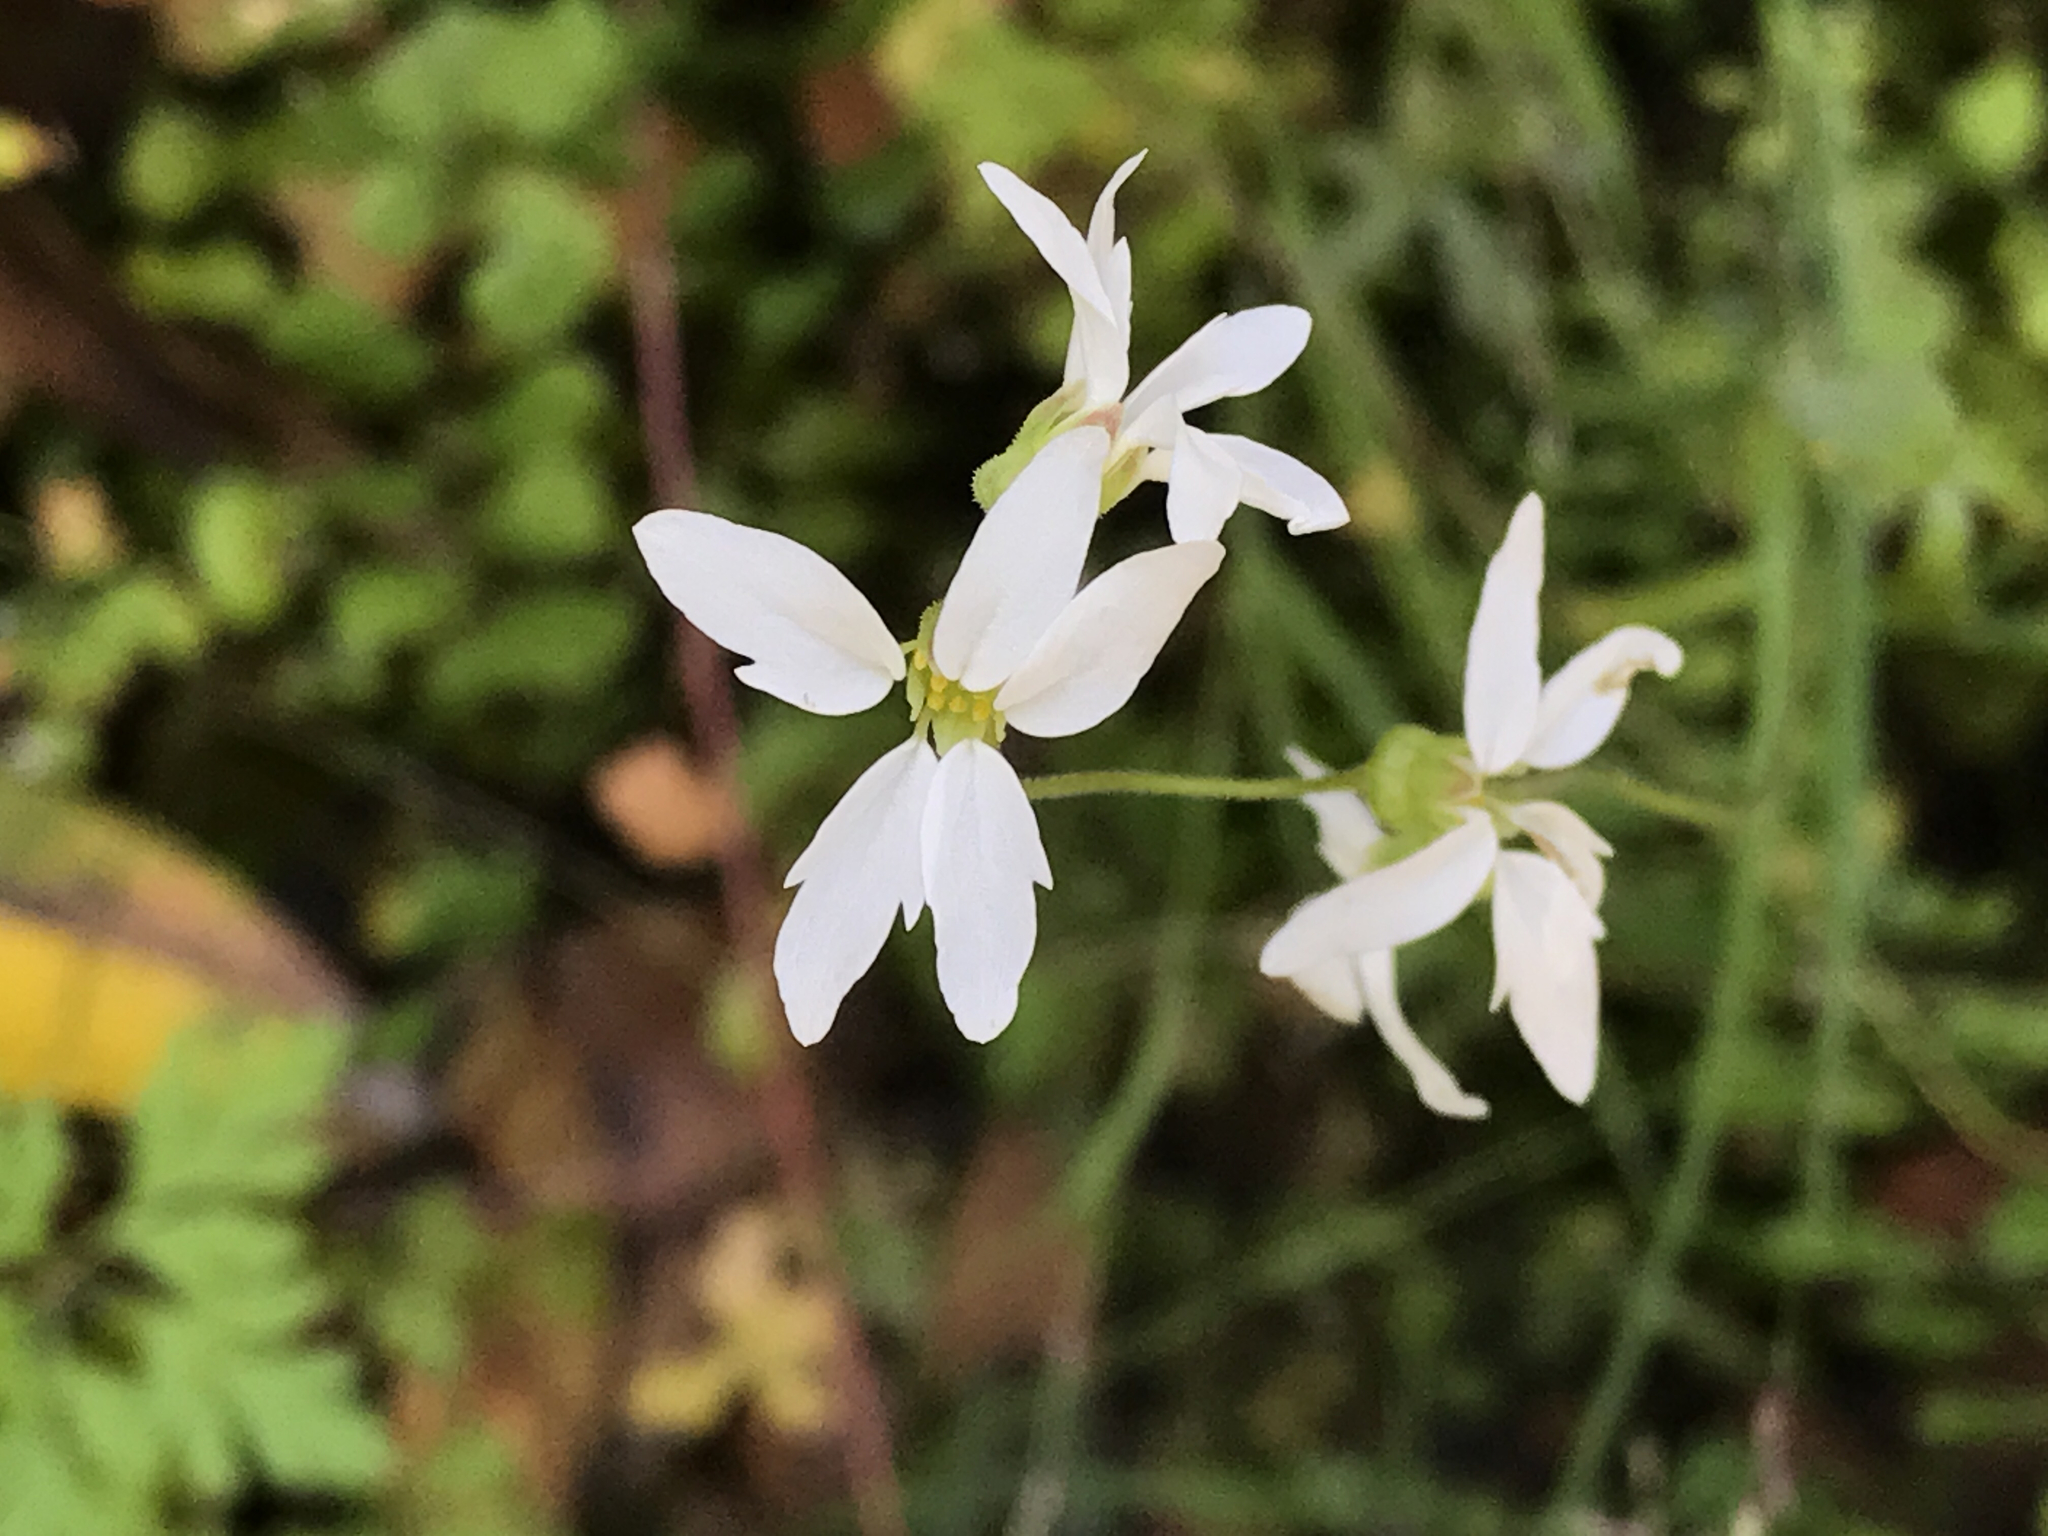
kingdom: Plantae
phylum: Tracheophyta
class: Magnoliopsida
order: Saxifragales
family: Saxifragaceae
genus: Lithophragma
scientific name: Lithophragma heterophyllum
